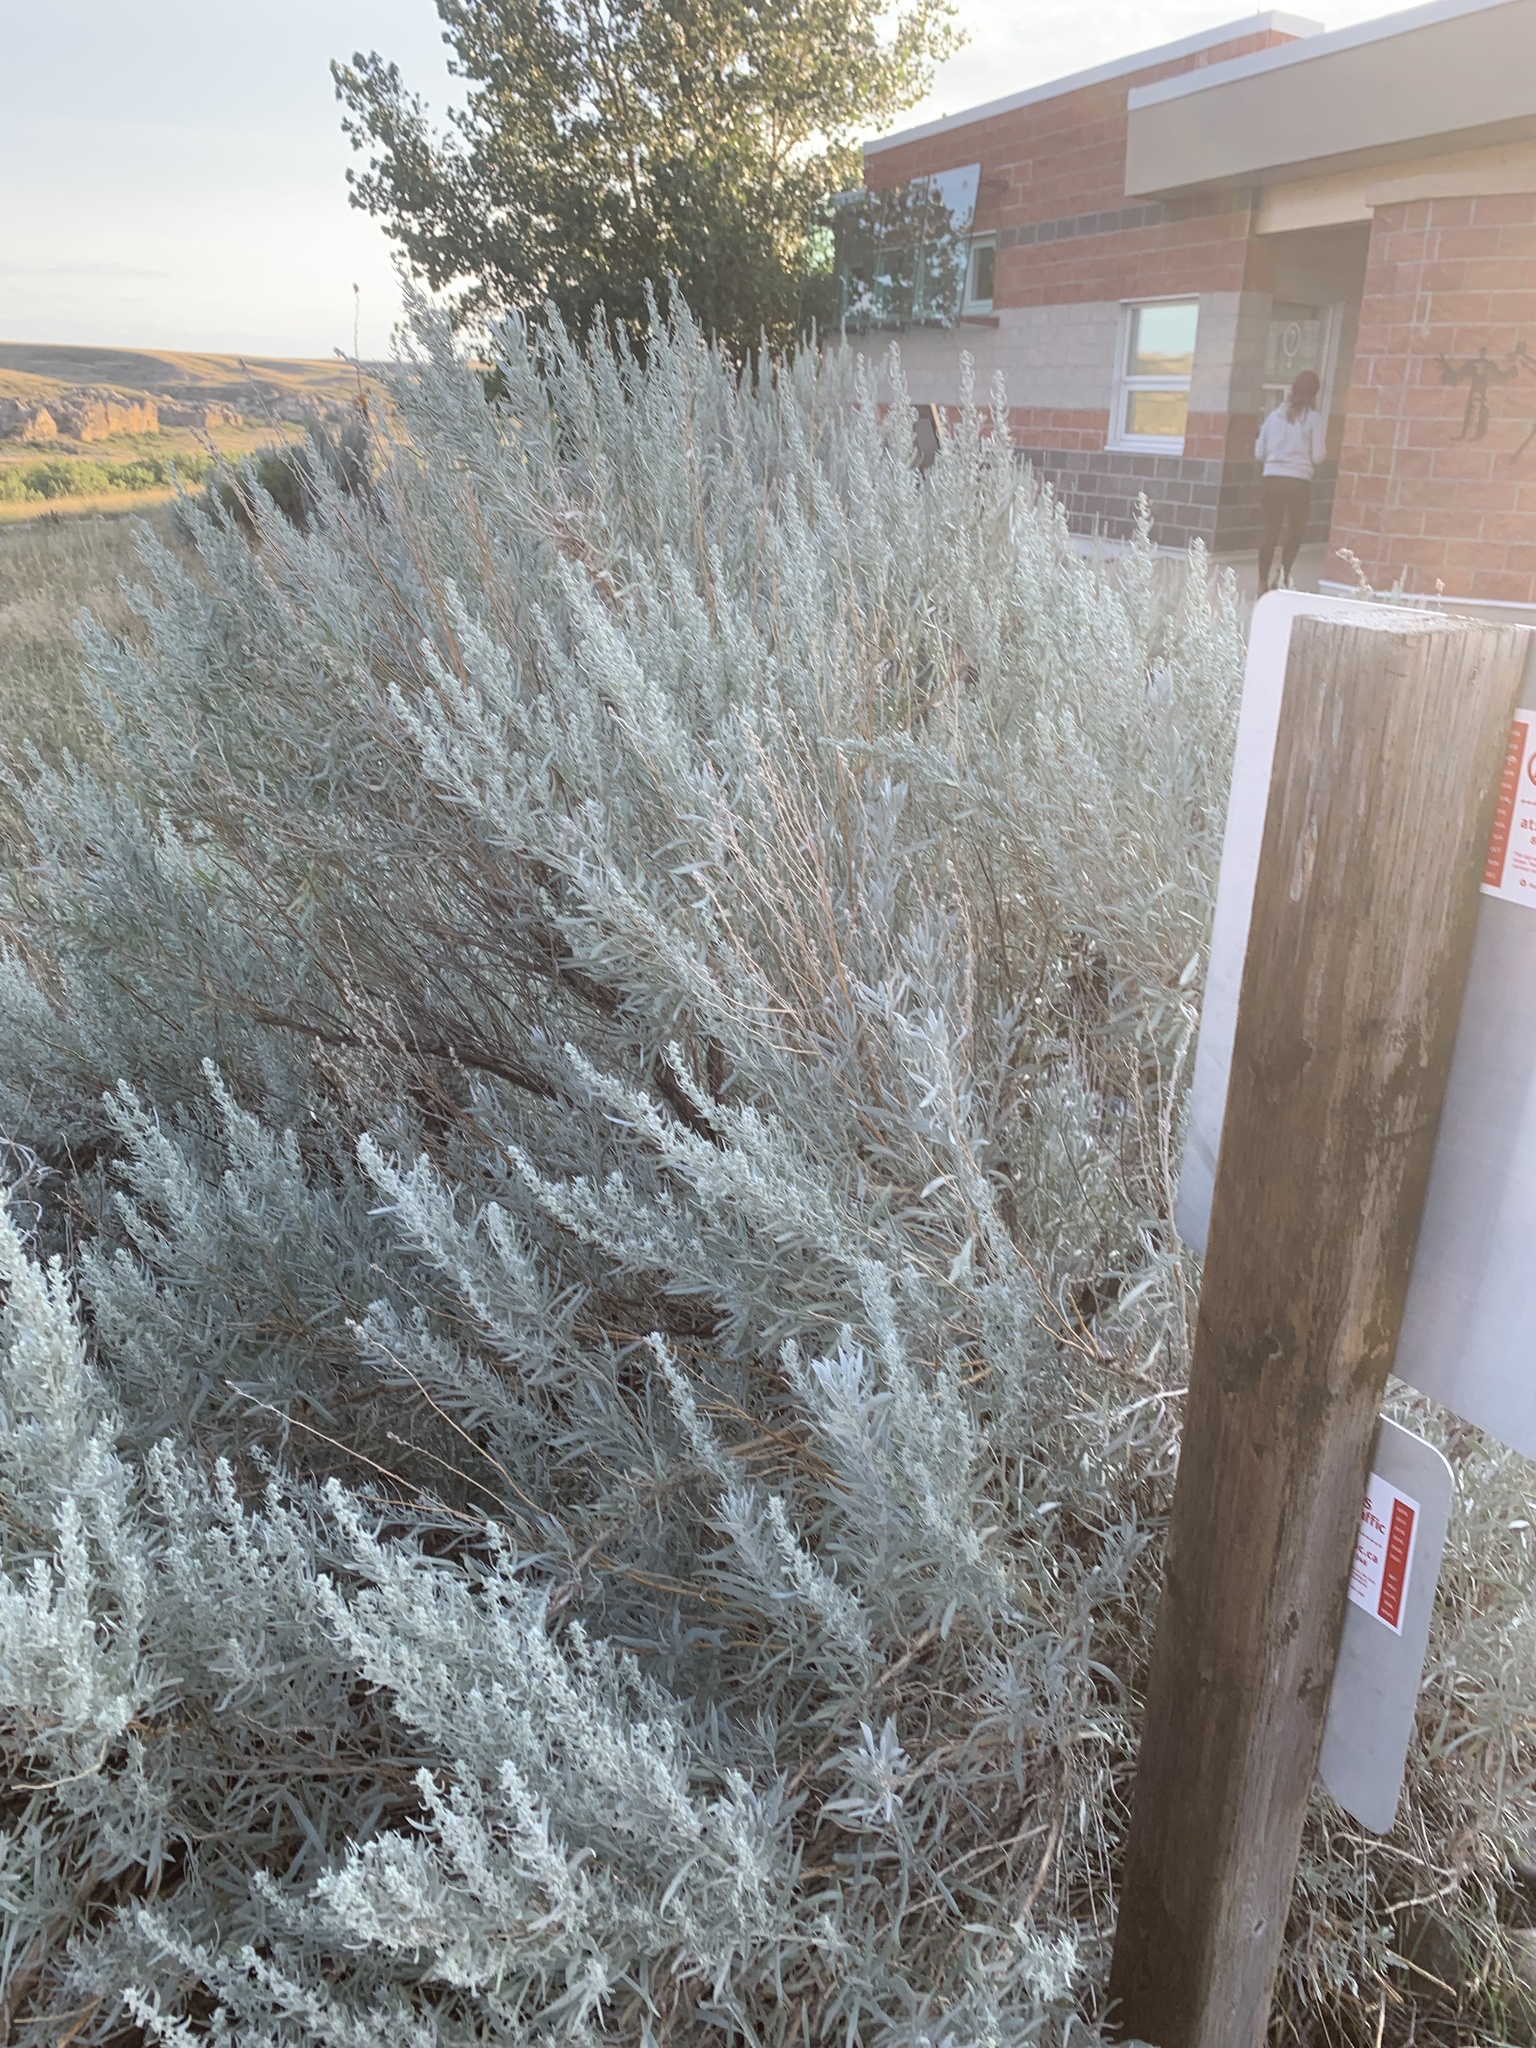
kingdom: Plantae
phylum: Tracheophyta
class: Magnoliopsida
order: Asterales
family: Asteraceae
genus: Artemisia
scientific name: Artemisia cana
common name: Silver sagebrush
